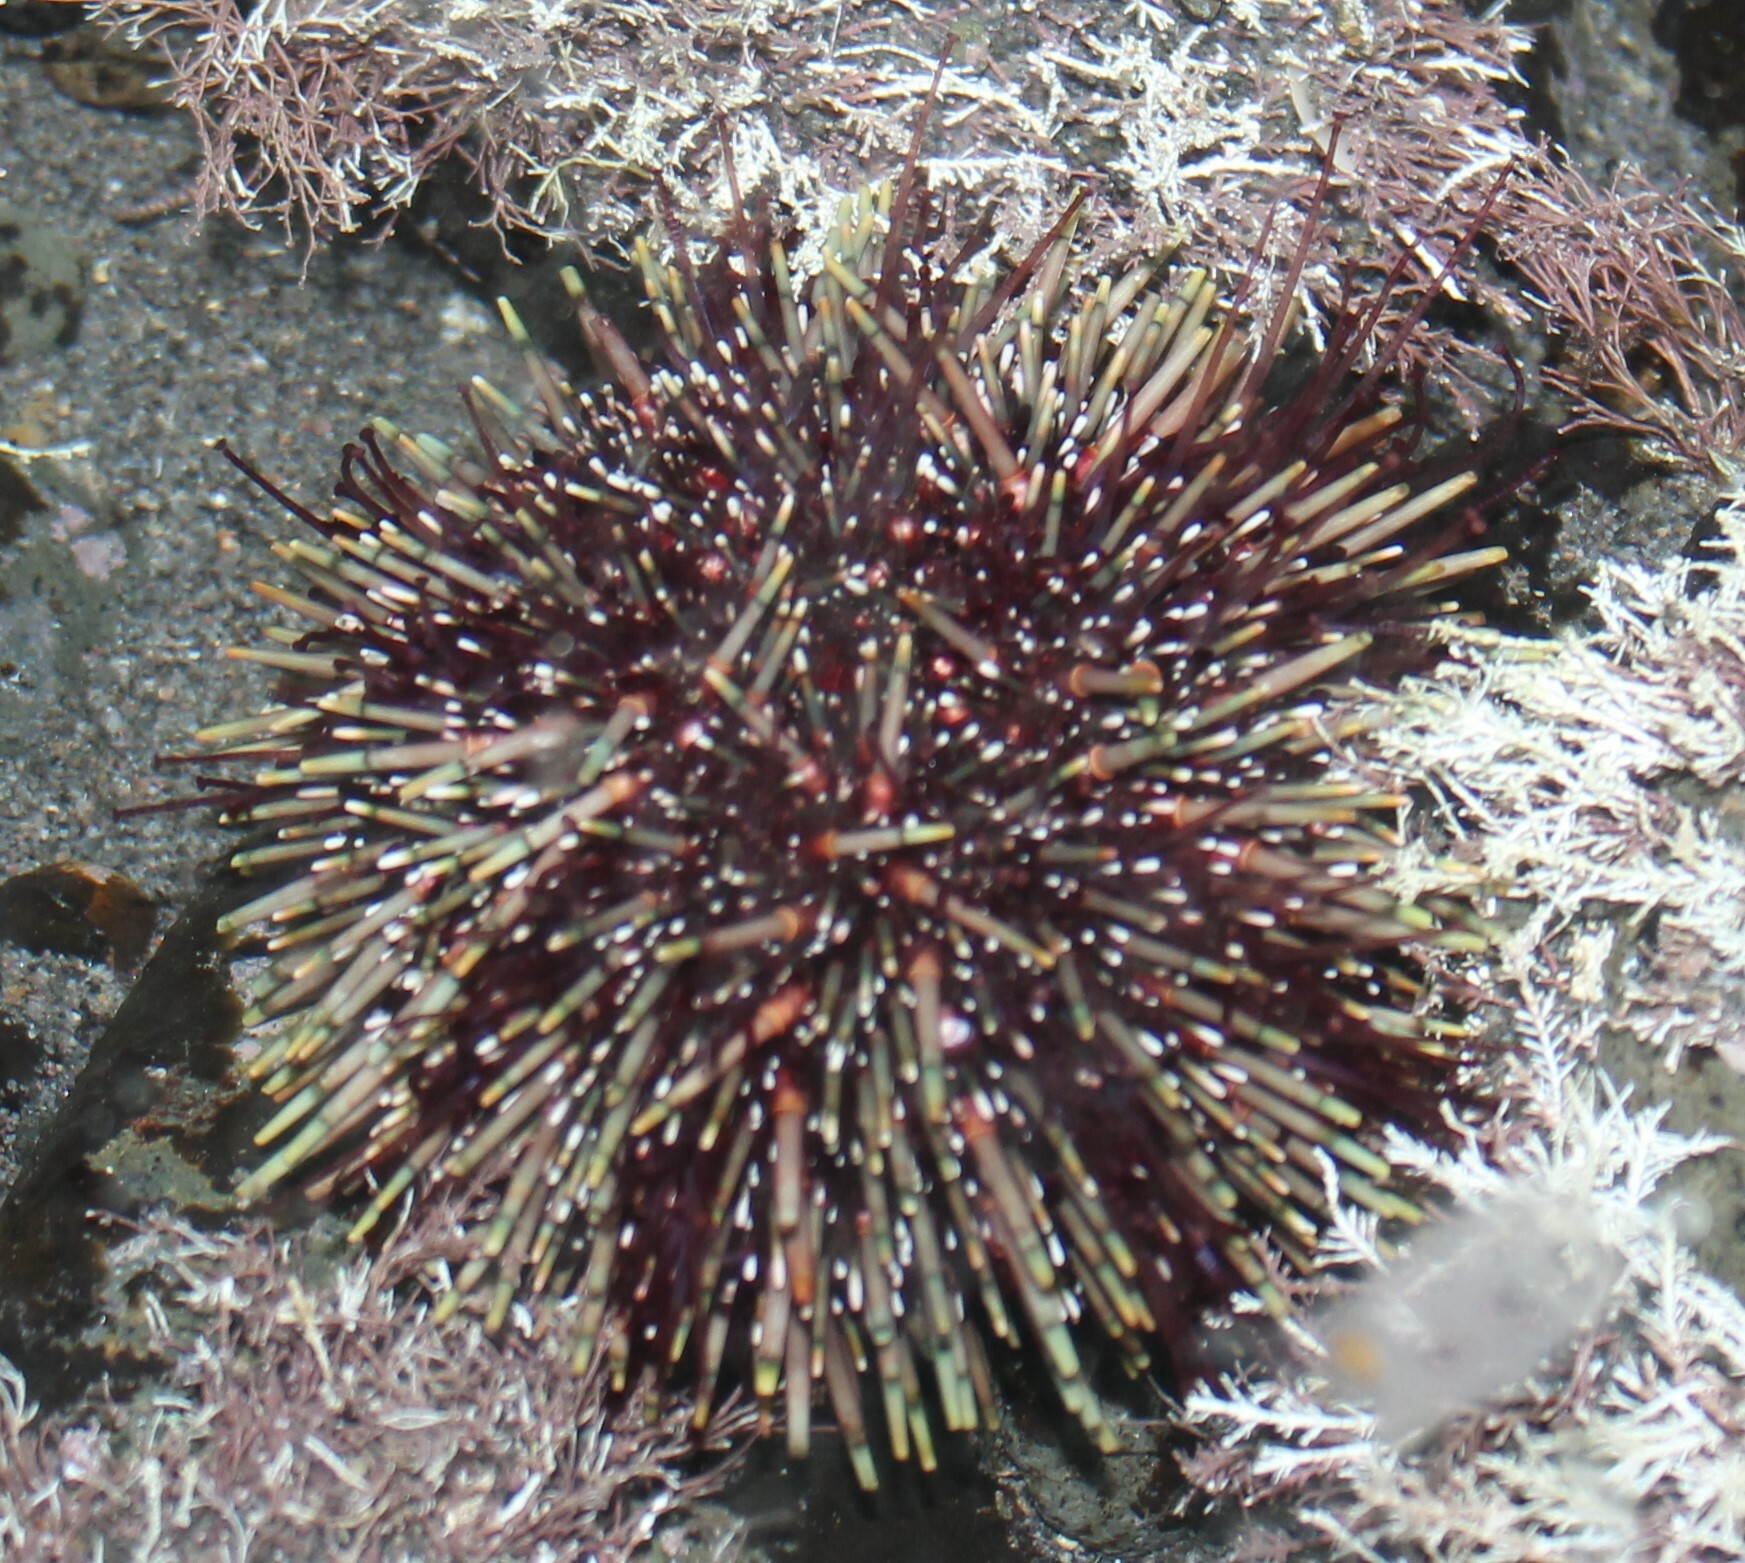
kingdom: Animalia
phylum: Echinodermata
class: Echinoidea
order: Camarodonta
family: Echinometridae
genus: Evechinus
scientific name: Evechinus chloroticus
